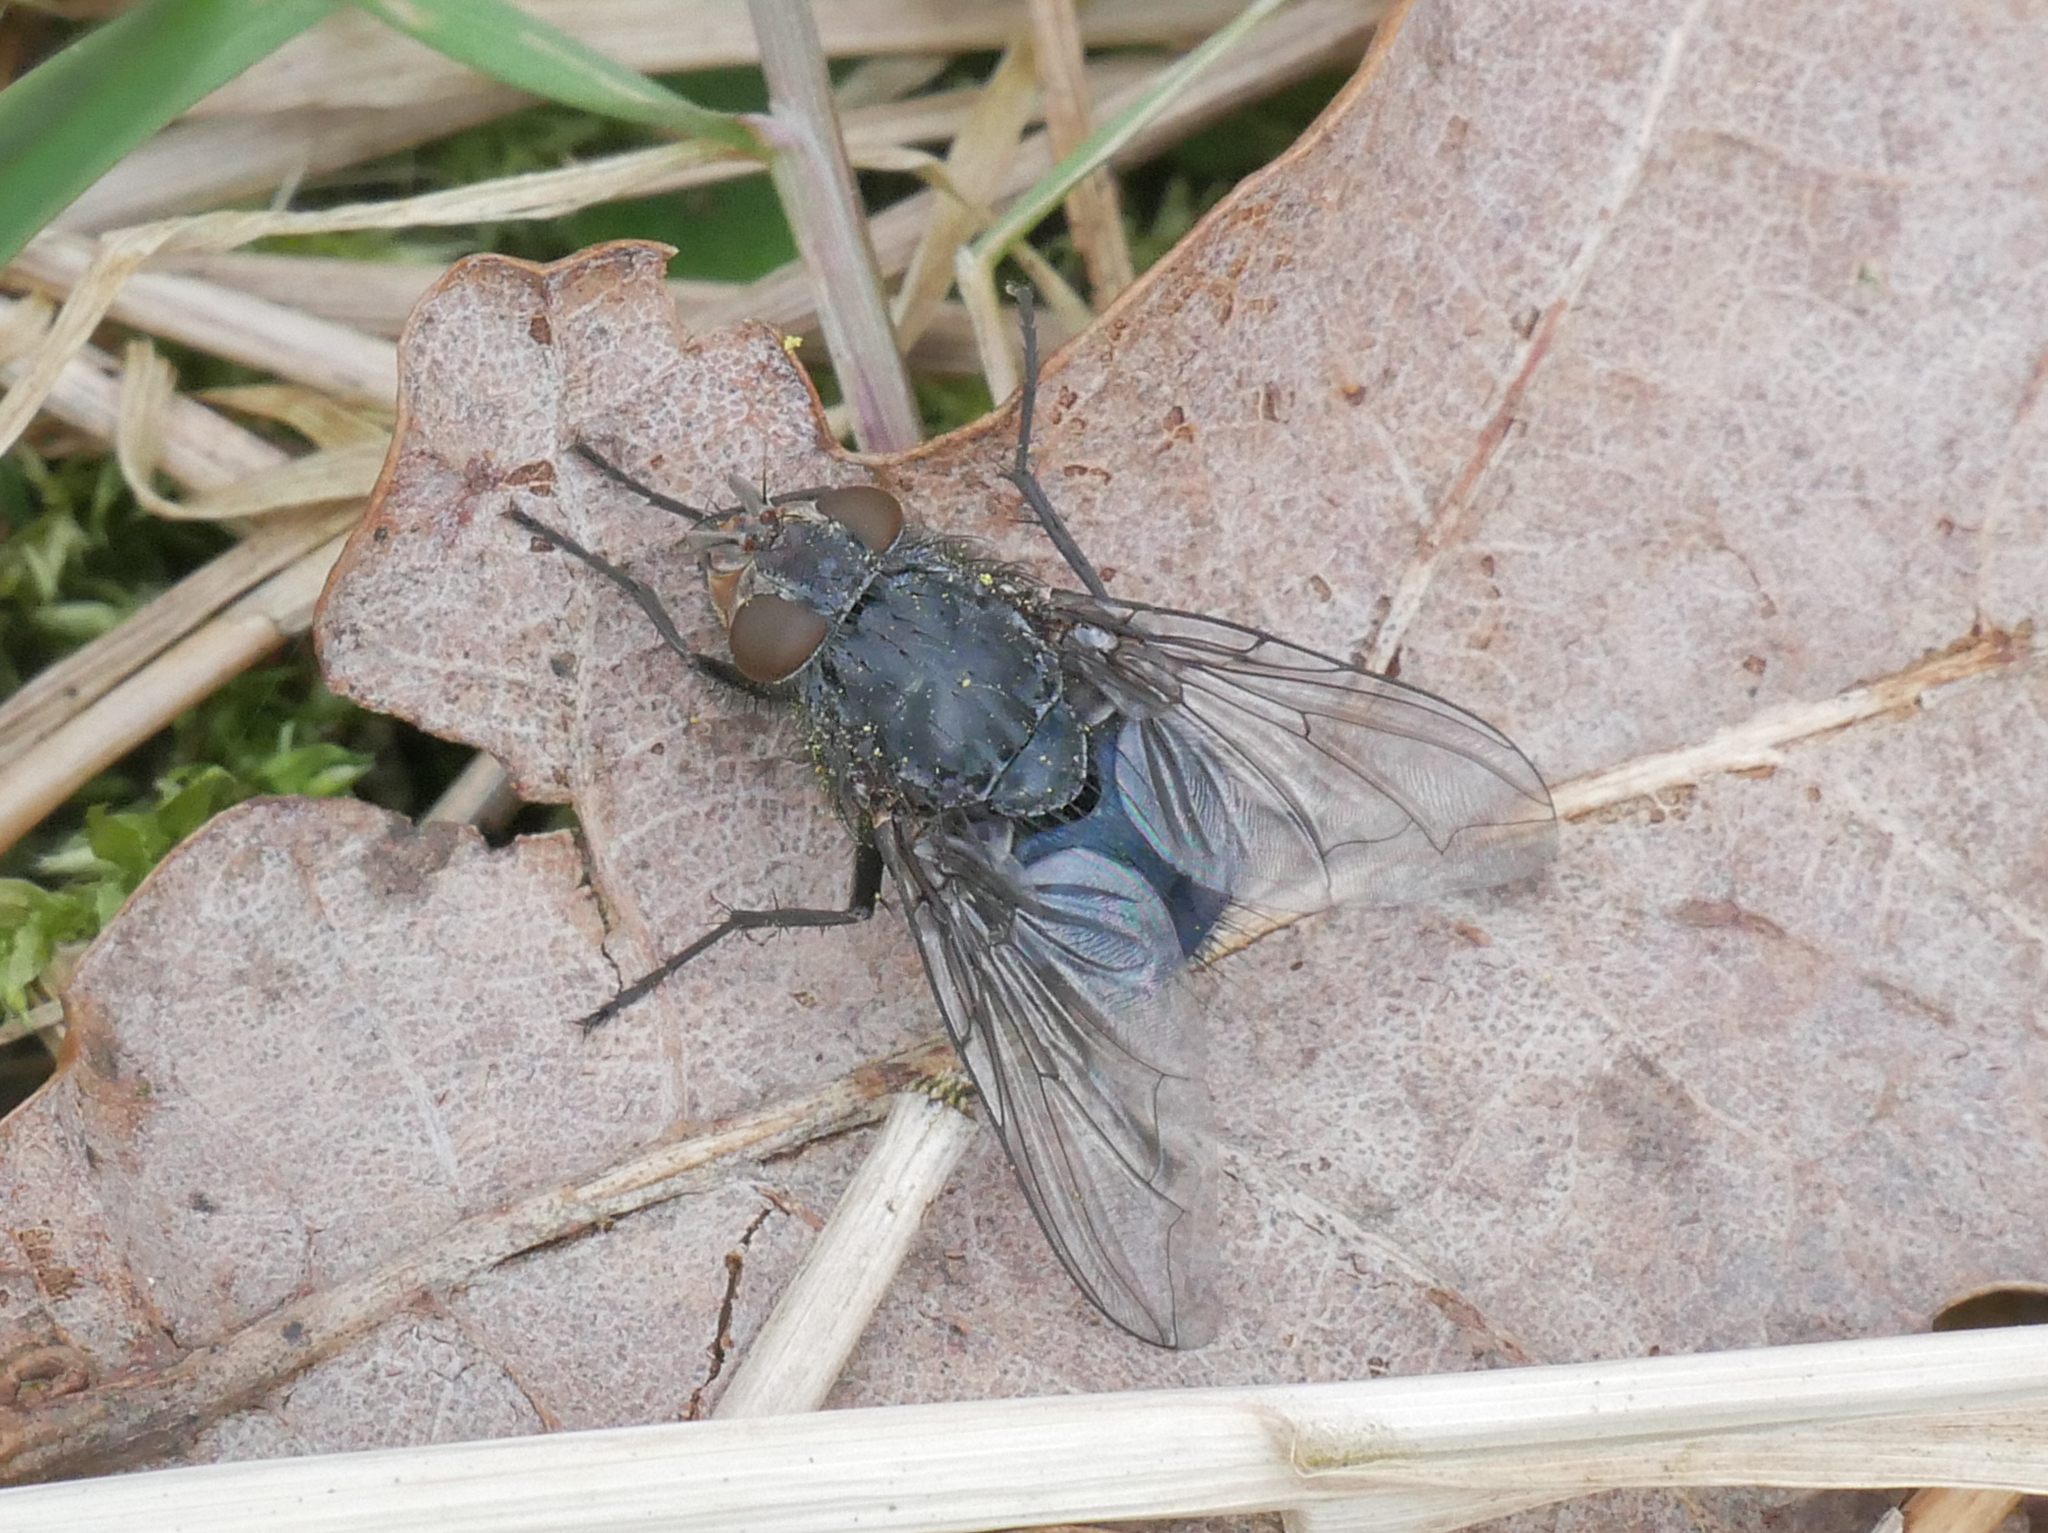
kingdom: Animalia
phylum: Arthropoda
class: Insecta
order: Diptera
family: Calliphoridae
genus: Calliphora
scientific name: Calliphora vicina
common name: Common blow flie
